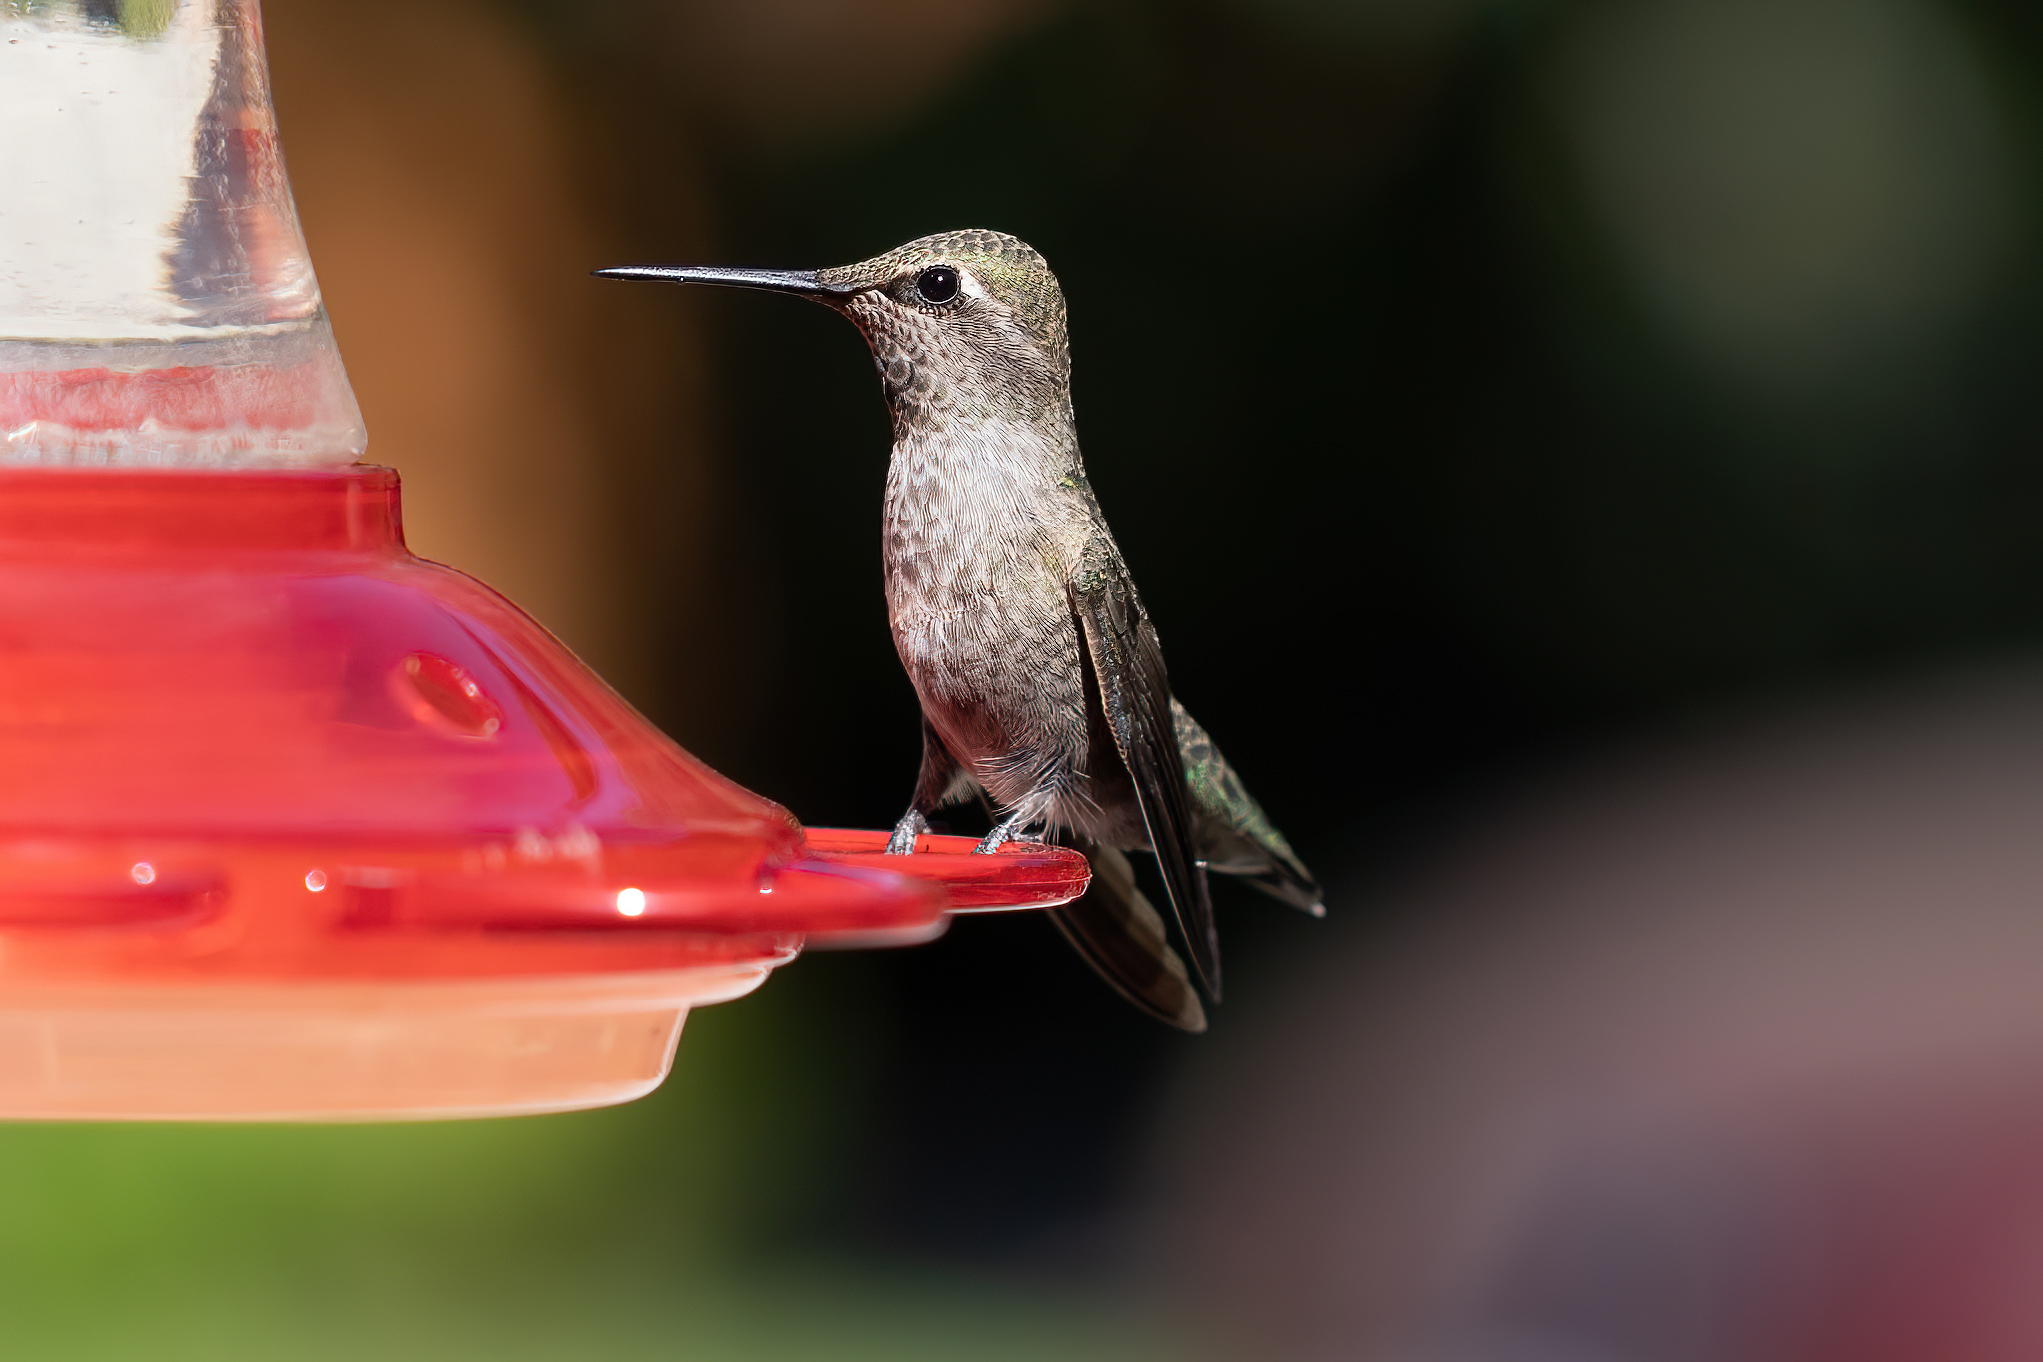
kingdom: Animalia
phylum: Chordata
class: Aves
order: Apodiformes
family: Trochilidae
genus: Calypte
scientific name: Calypte anna
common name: Anna's hummingbird
